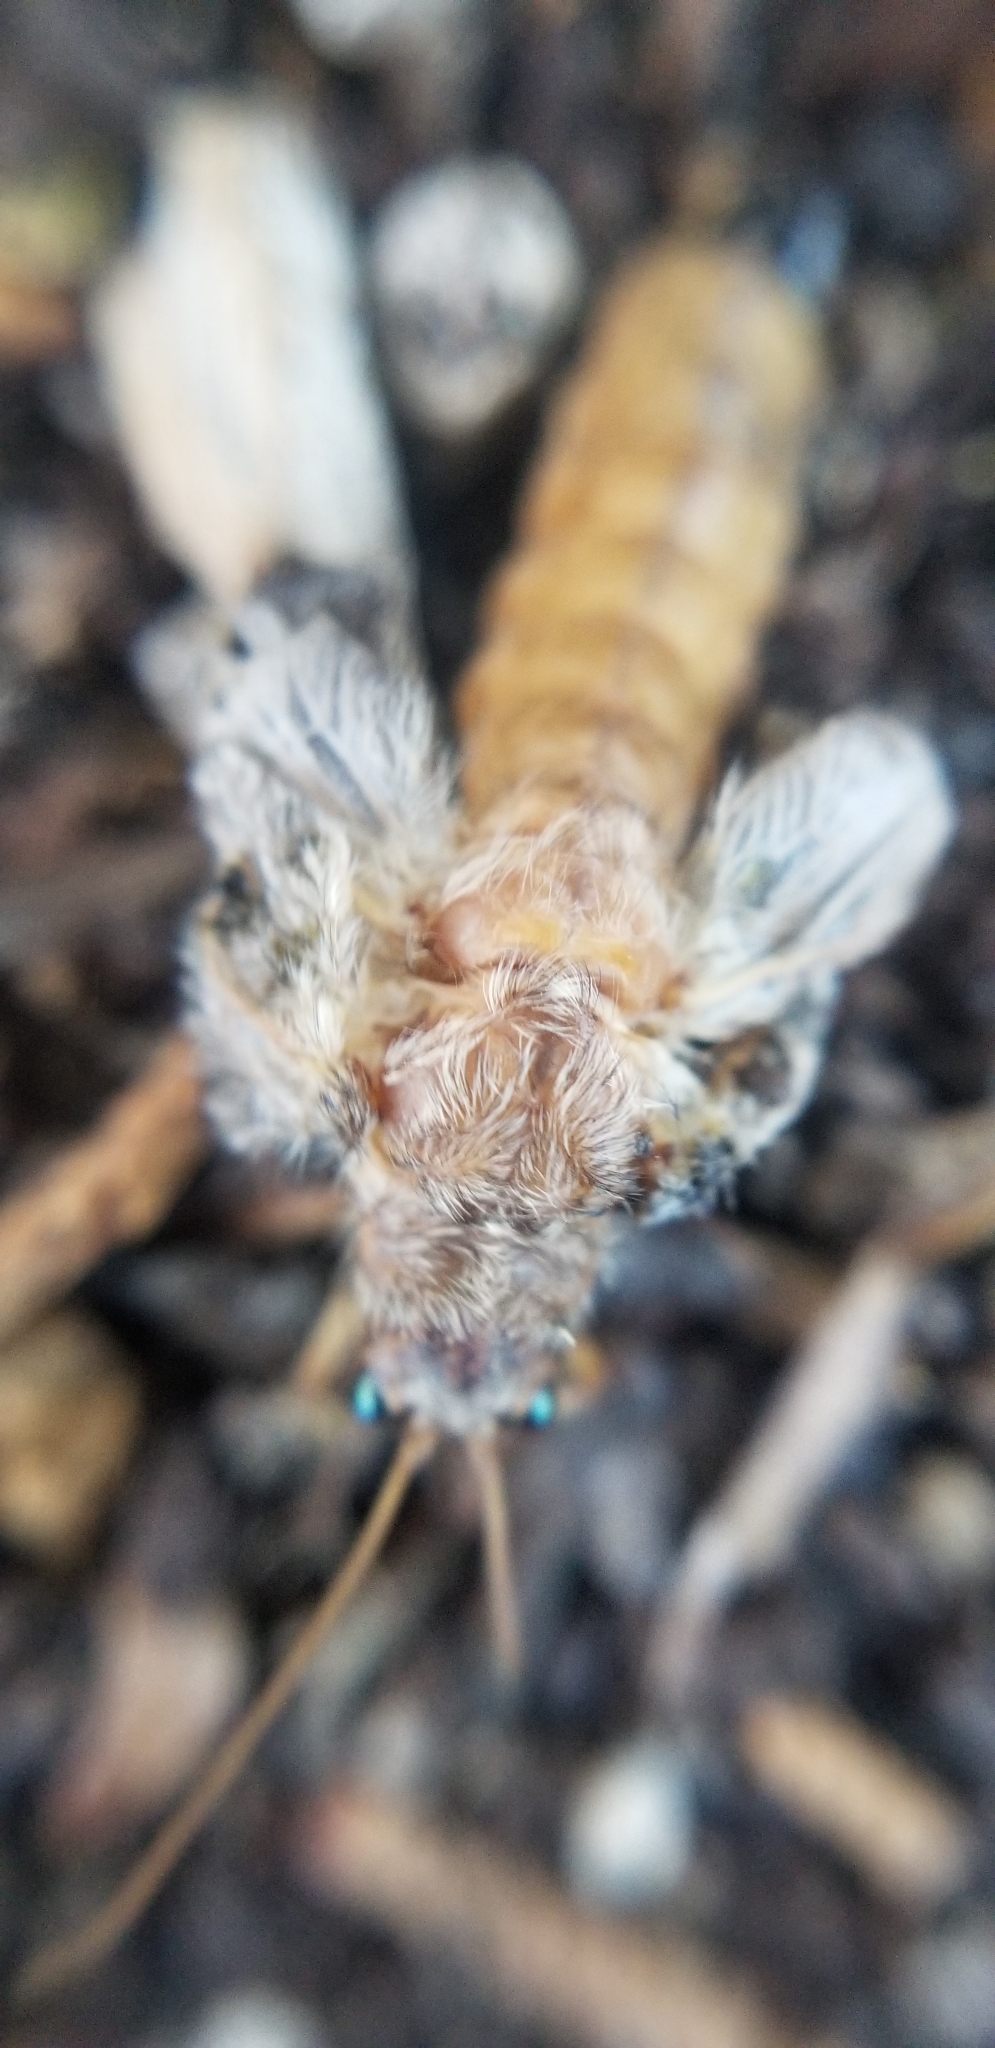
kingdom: Animalia
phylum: Arthropoda
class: Insecta
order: Neuroptera
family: Ithonidae
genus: Platystoechotes
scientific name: Platystoechotes lineata
